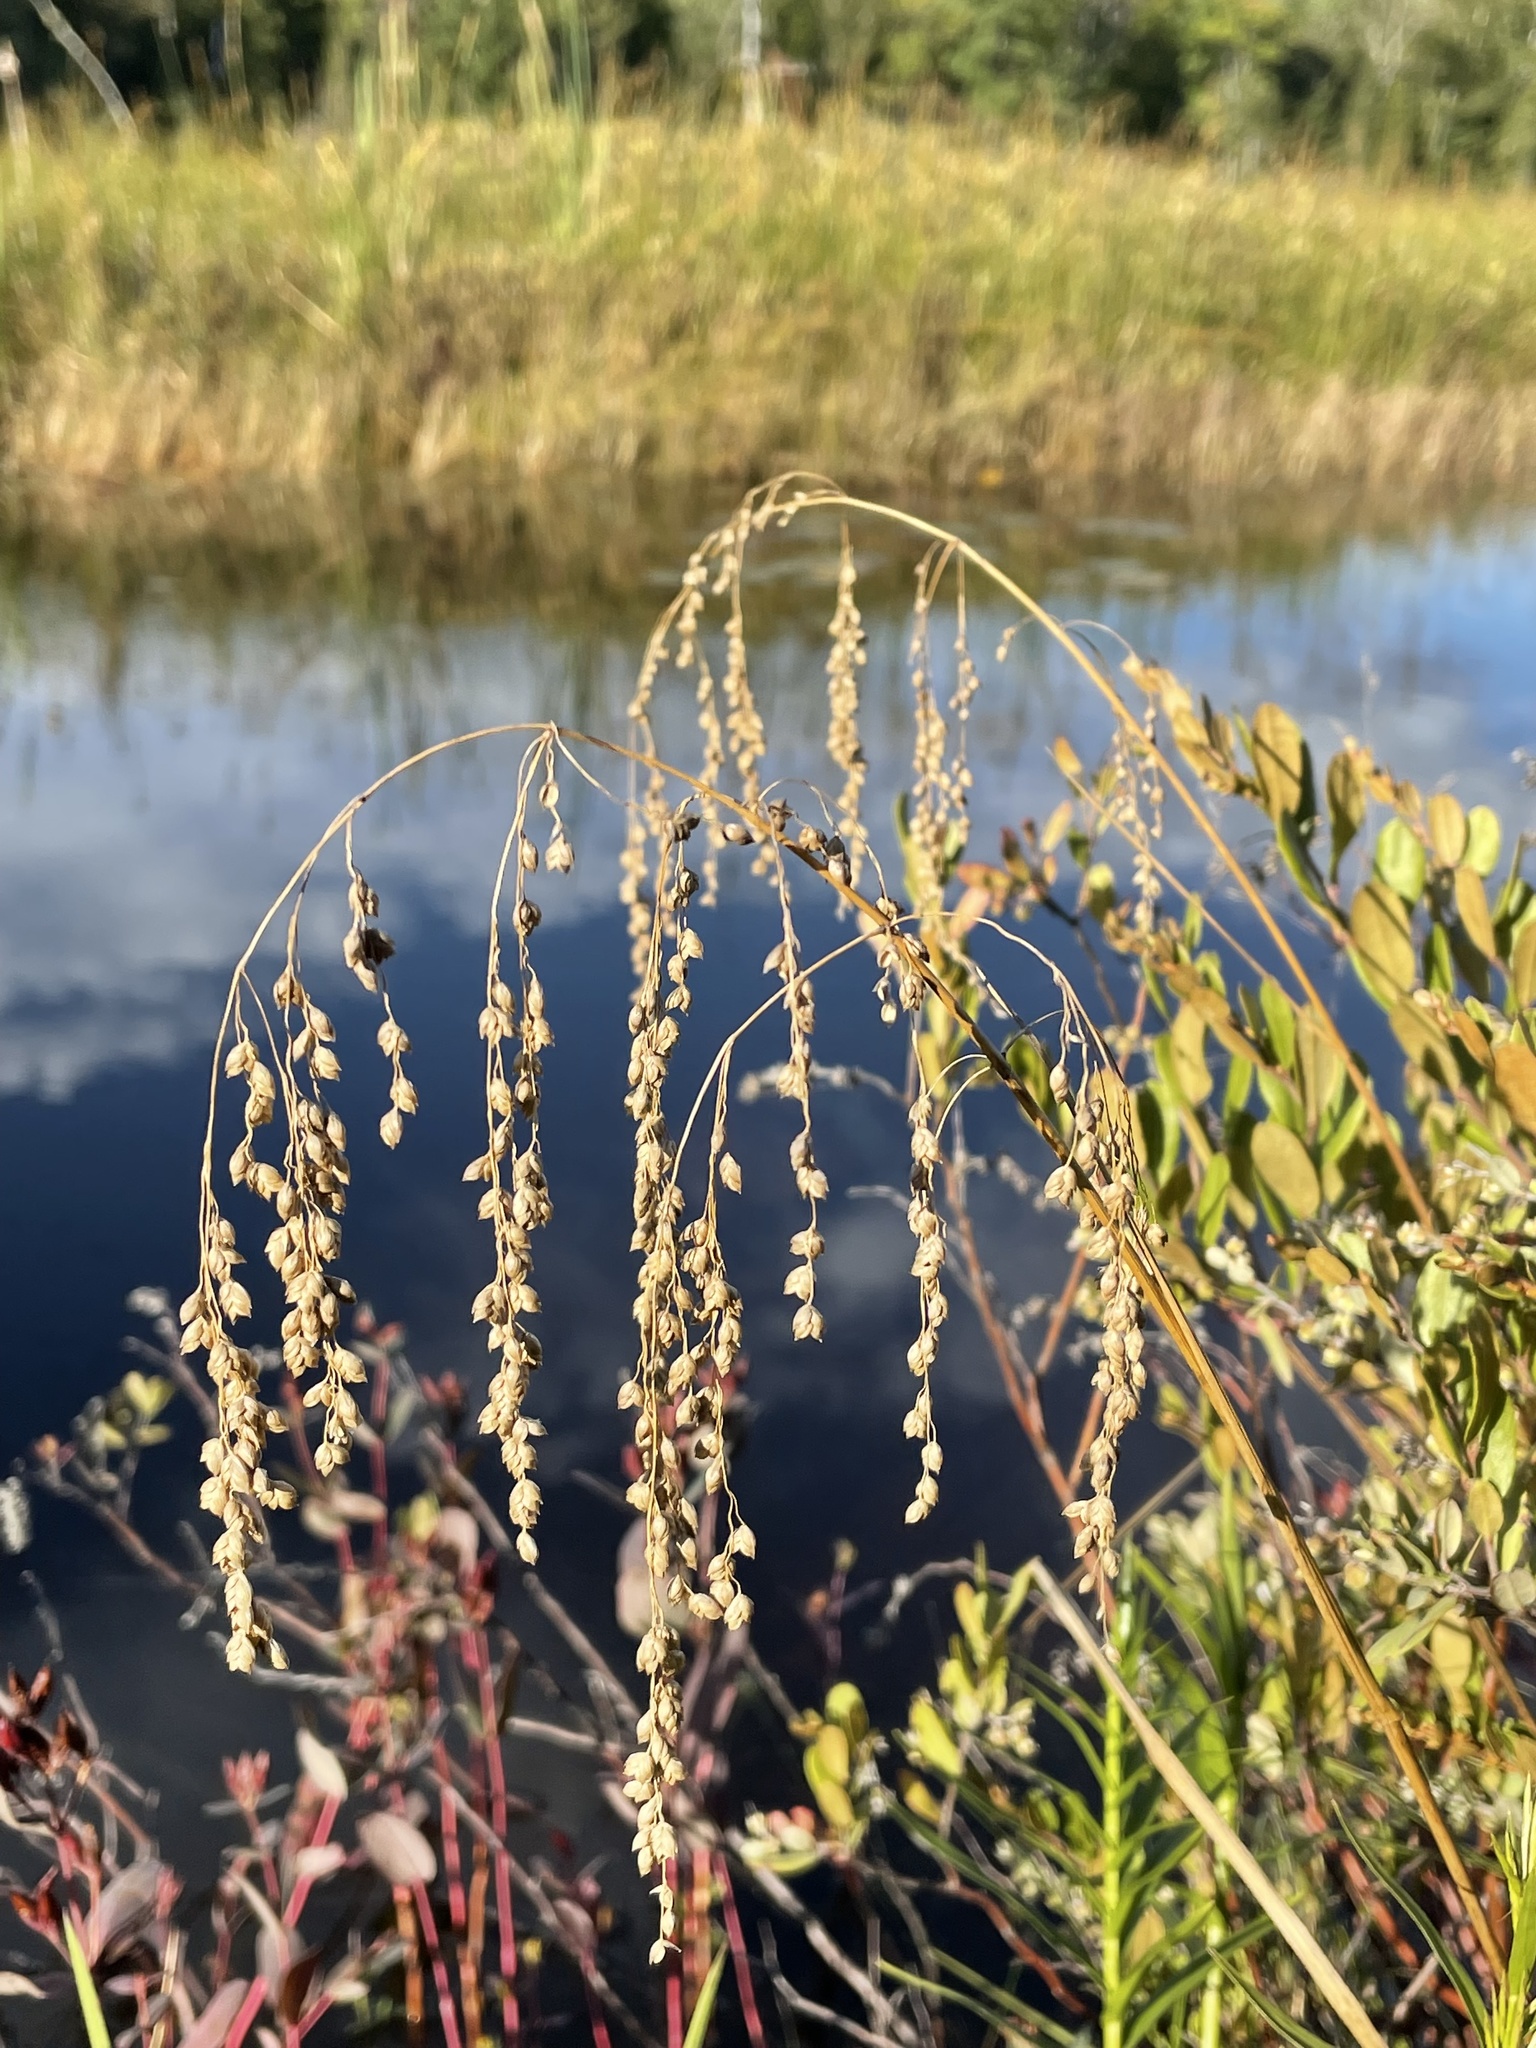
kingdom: Plantae
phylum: Tracheophyta
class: Liliopsida
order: Poales
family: Poaceae
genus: Glyceria
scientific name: Glyceria canadensis
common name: Canada mannagrass
